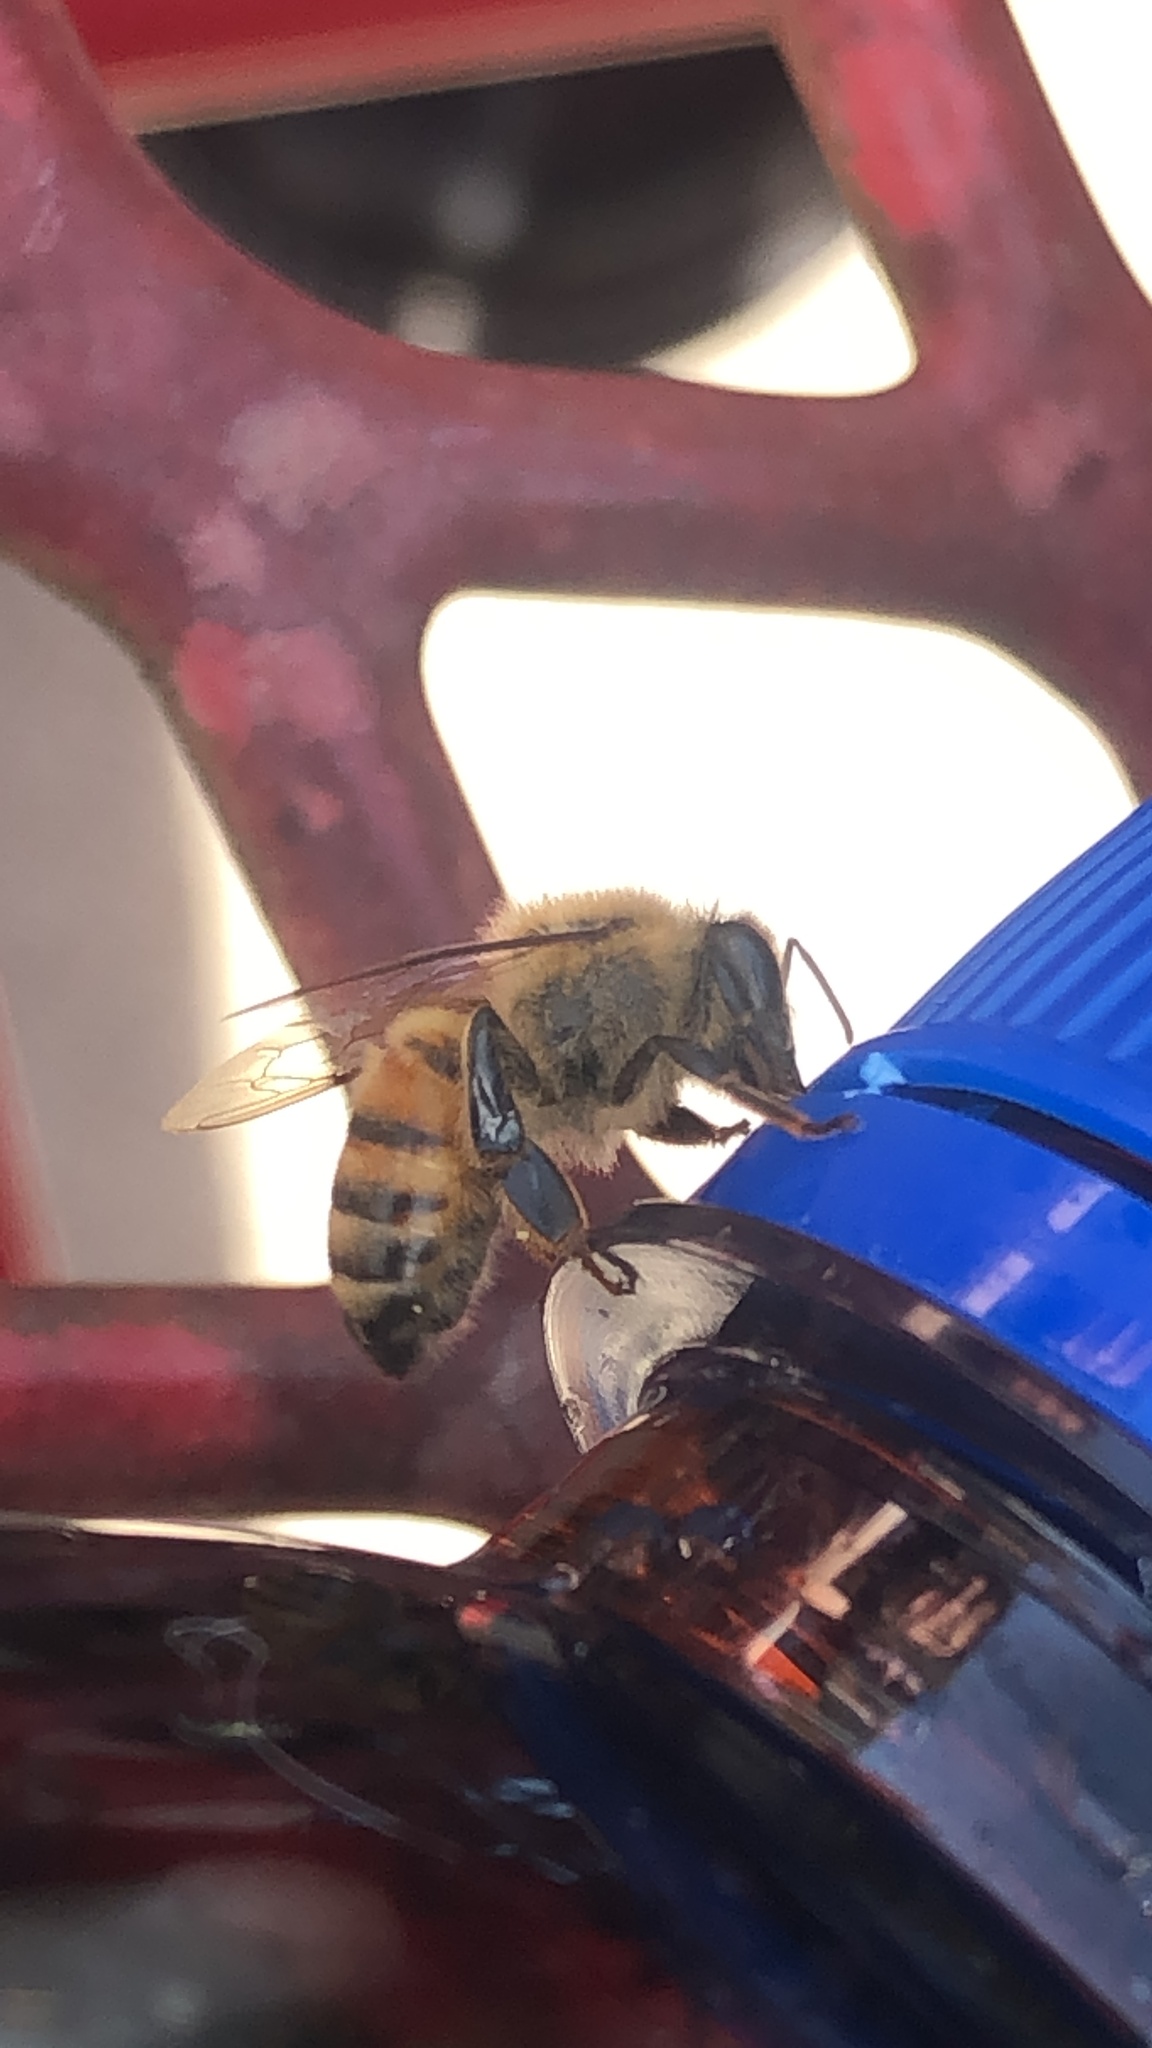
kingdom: Animalia
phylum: Arthropoda
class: Insecta
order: Hymenoptera
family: Apidae
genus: Apis
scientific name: Apis mellifera
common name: Honey bee
